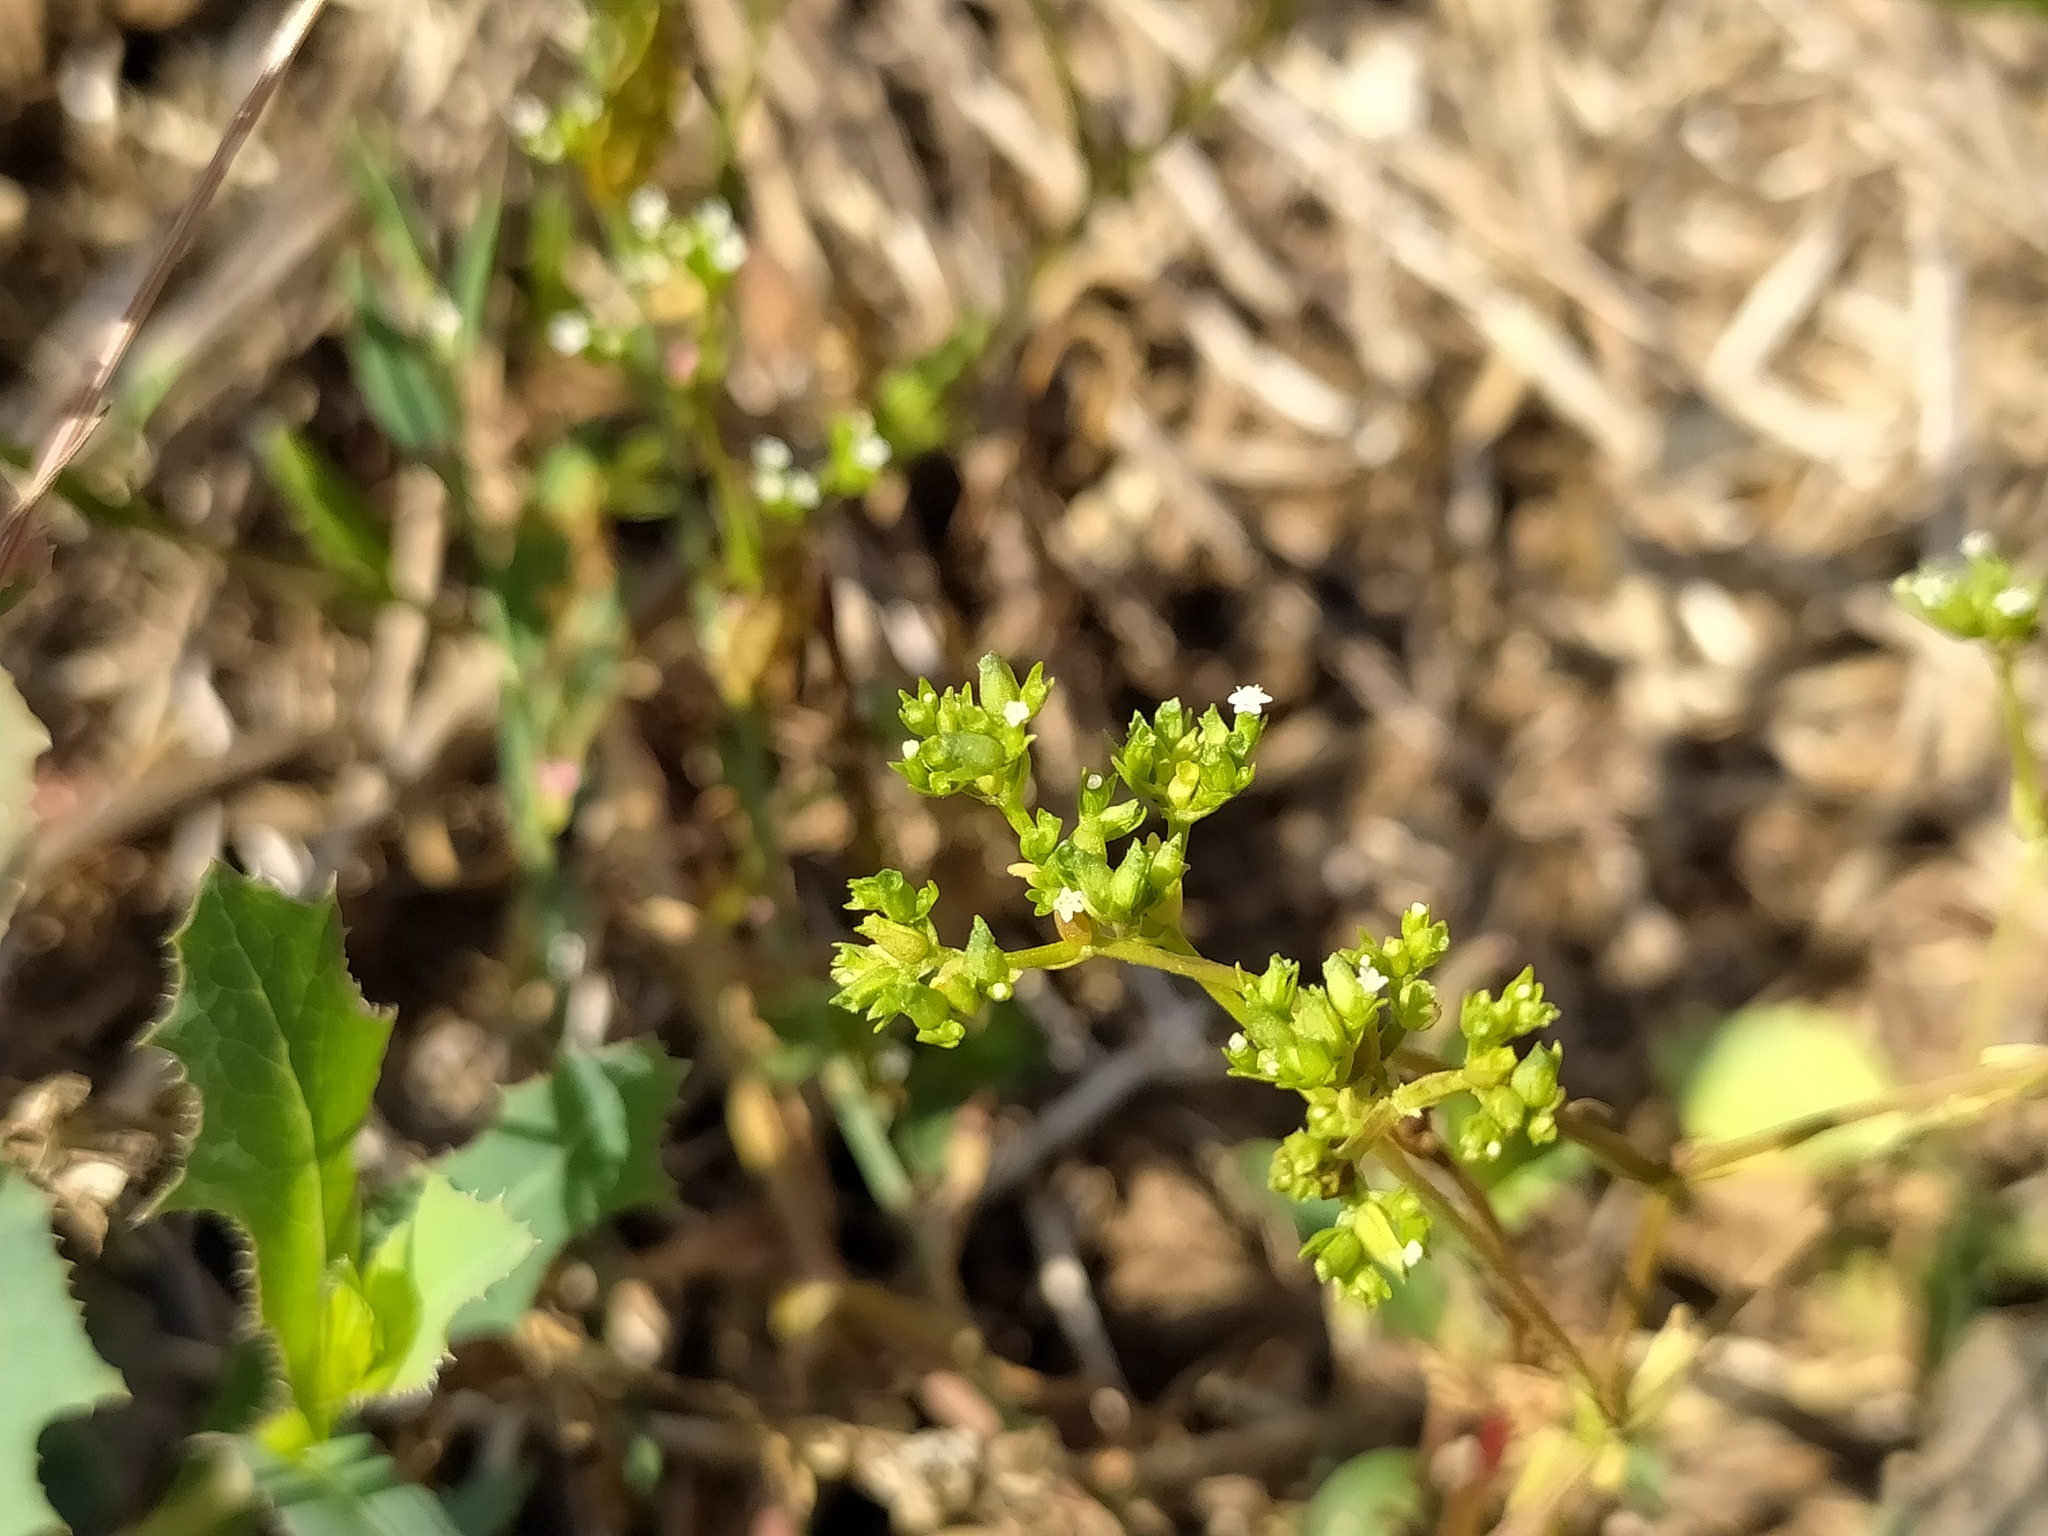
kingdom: Plantae
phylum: Tracheophyta
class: Magnoliopsida
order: Dipsacales
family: Caprifoliaceae
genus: Valerianella
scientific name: Valerianella rimosa
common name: Broad-fruited cornsalad
